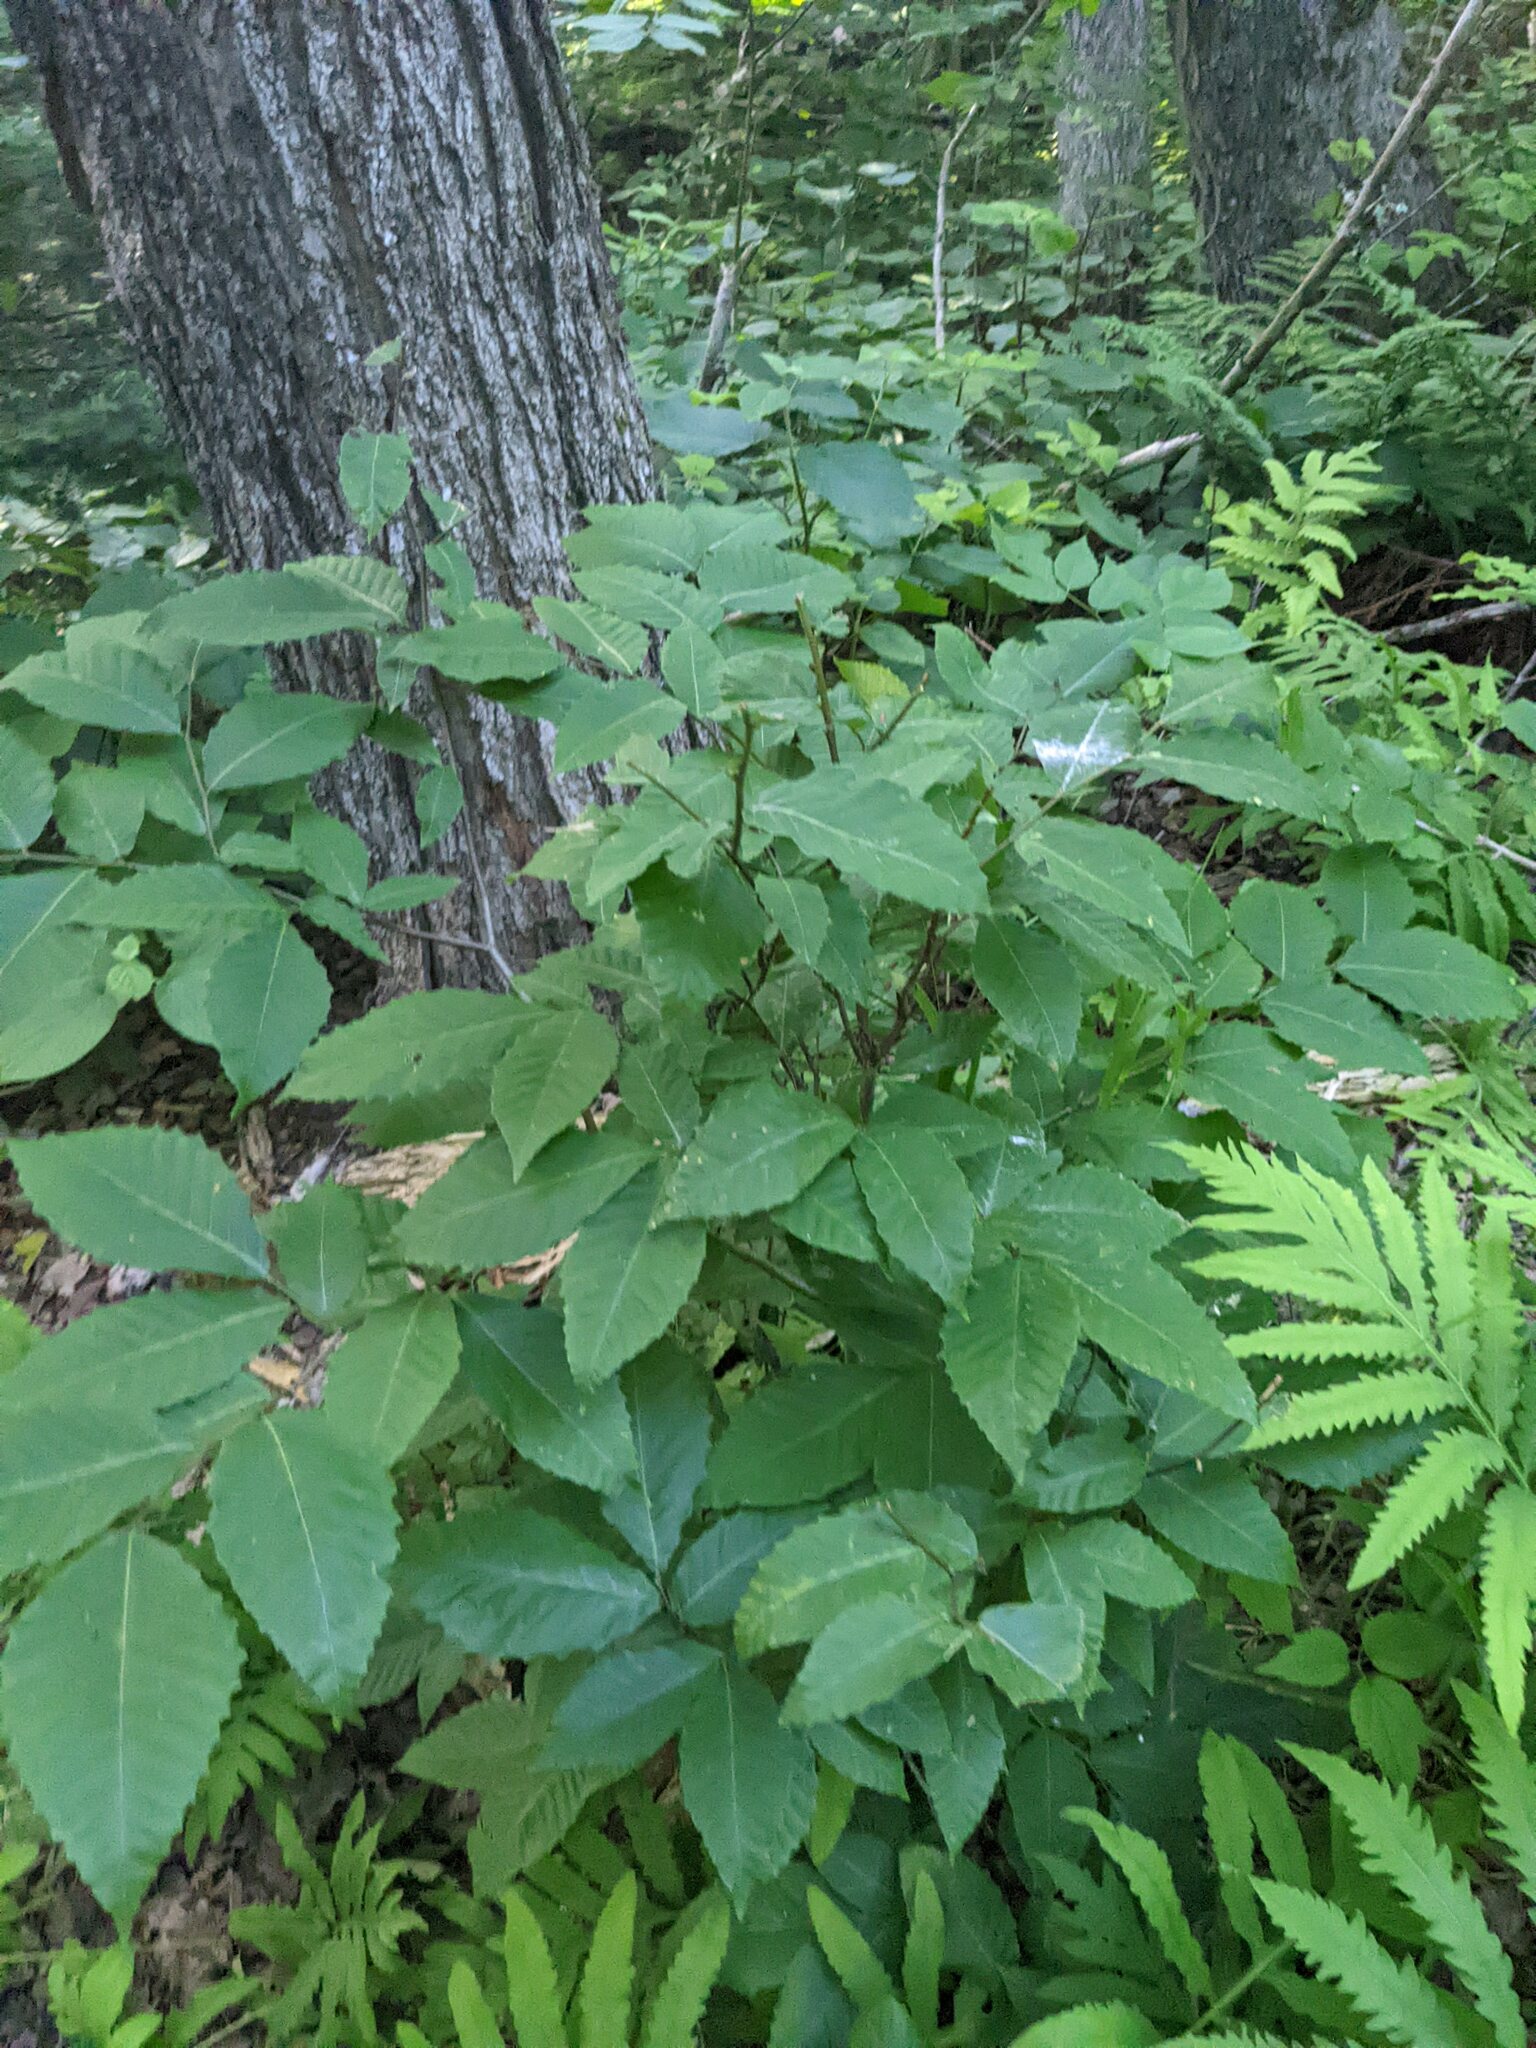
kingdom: Plantae
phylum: Tracheophyta
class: Magnoliopsida
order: Fagales
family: Fagaceae
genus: Fagus
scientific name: Fagus grandifolia
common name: American beech
